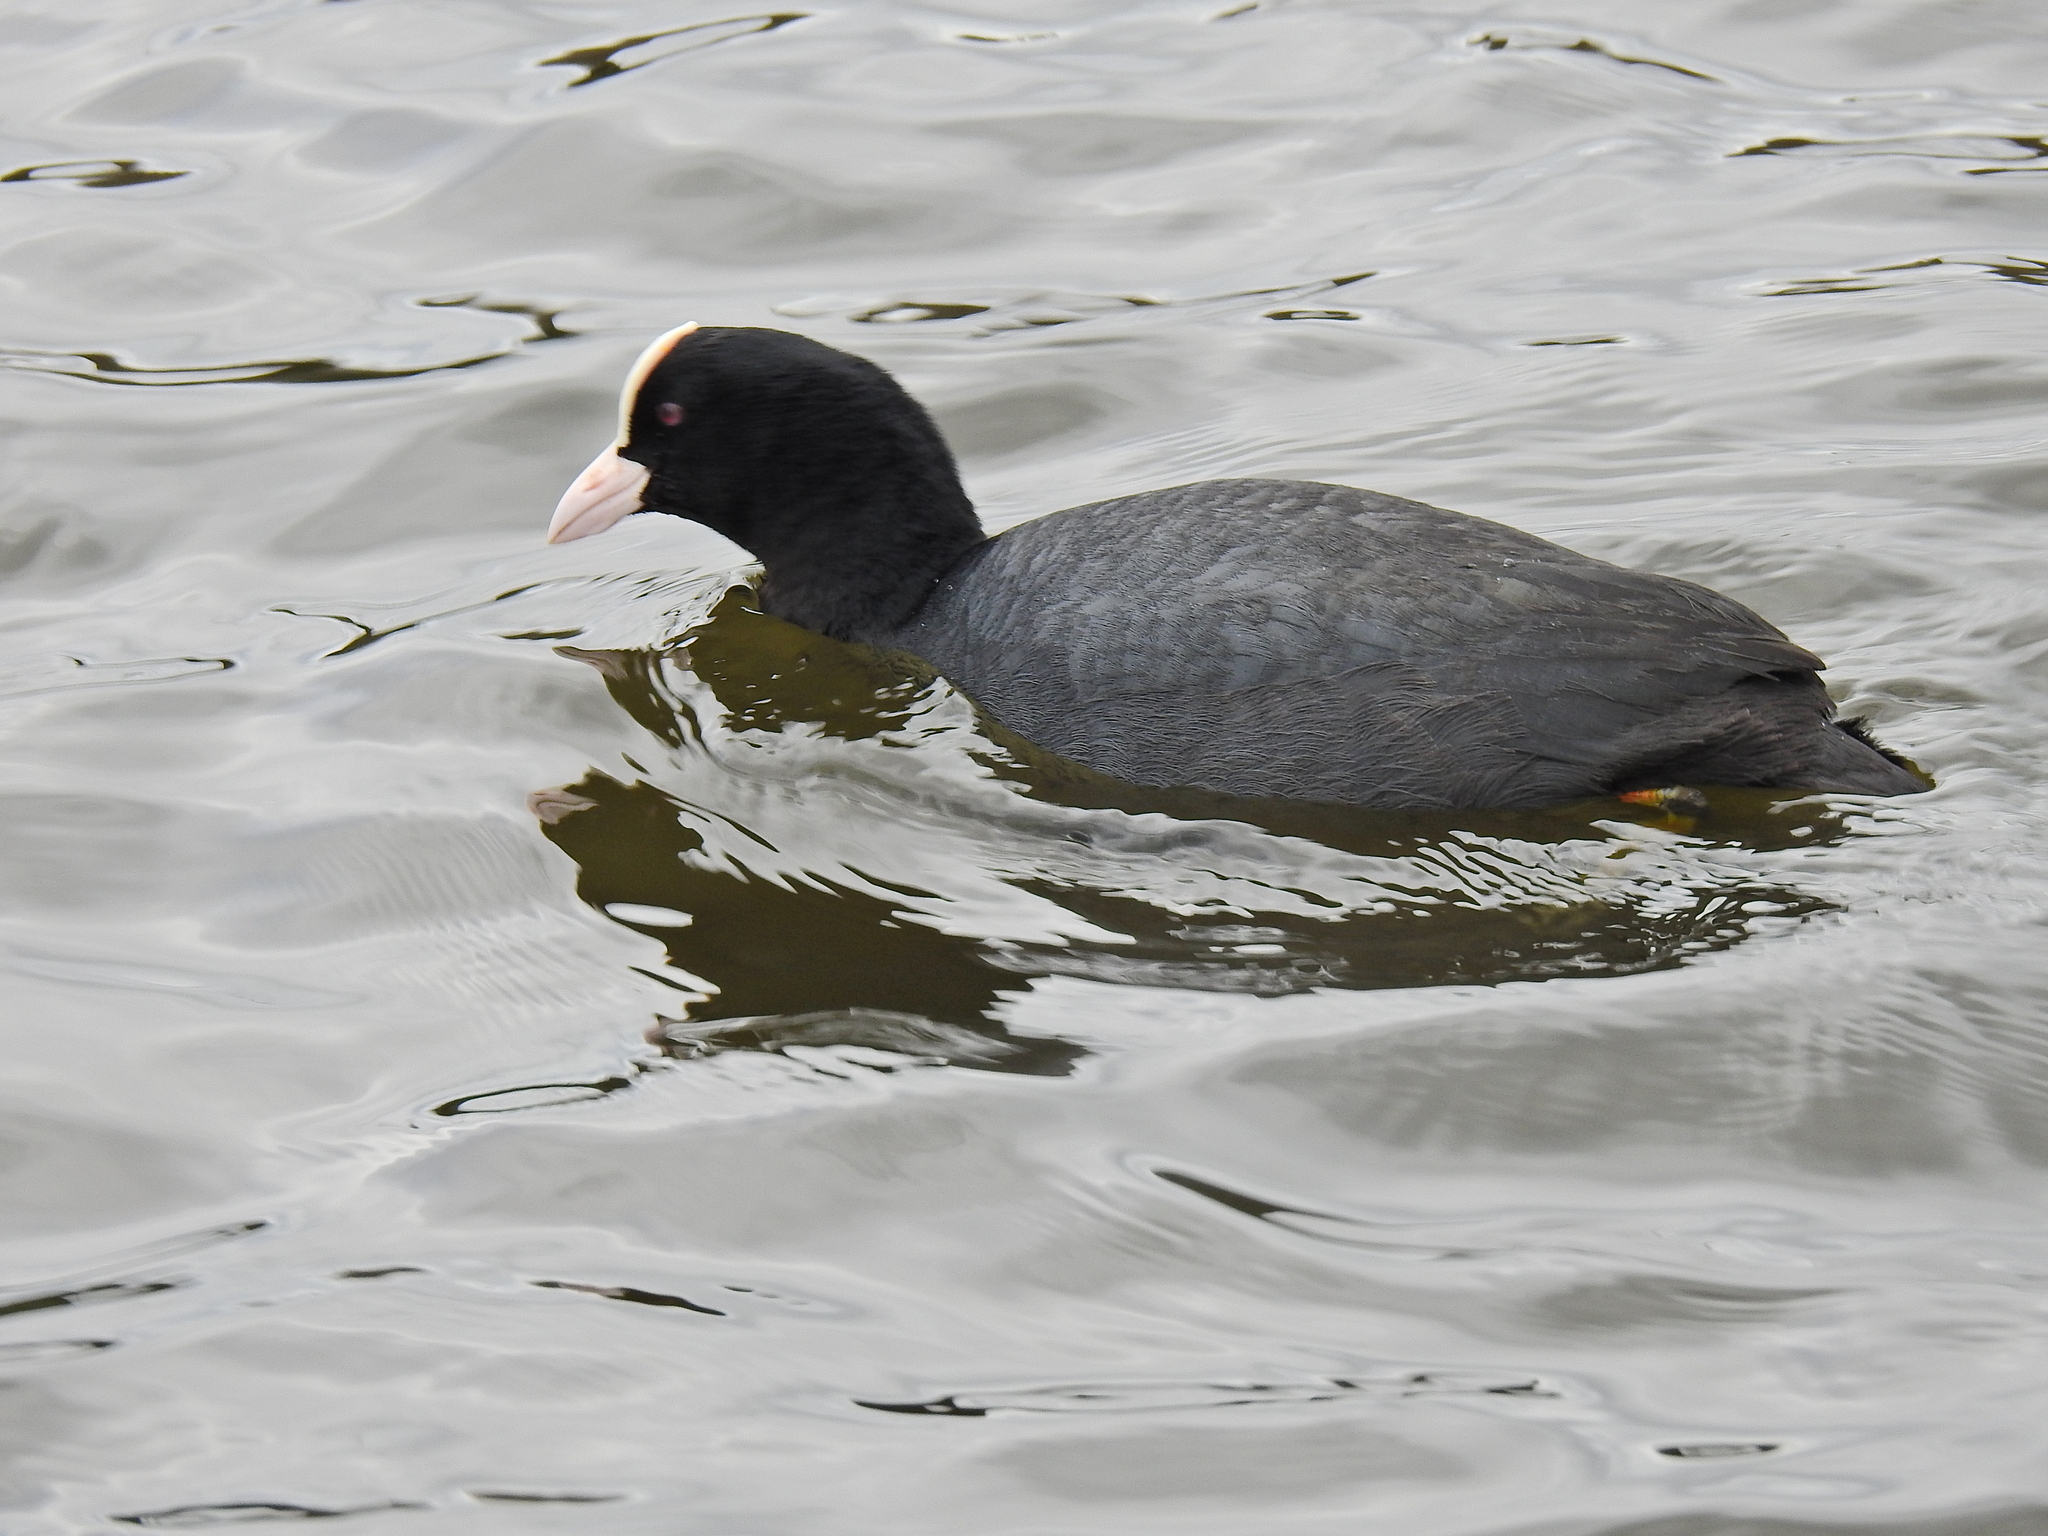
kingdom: Animalia
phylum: Chordata
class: Aves
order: Gruiformes
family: Rallidae
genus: Fulica
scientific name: Fulica atra
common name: Eurasian coot
